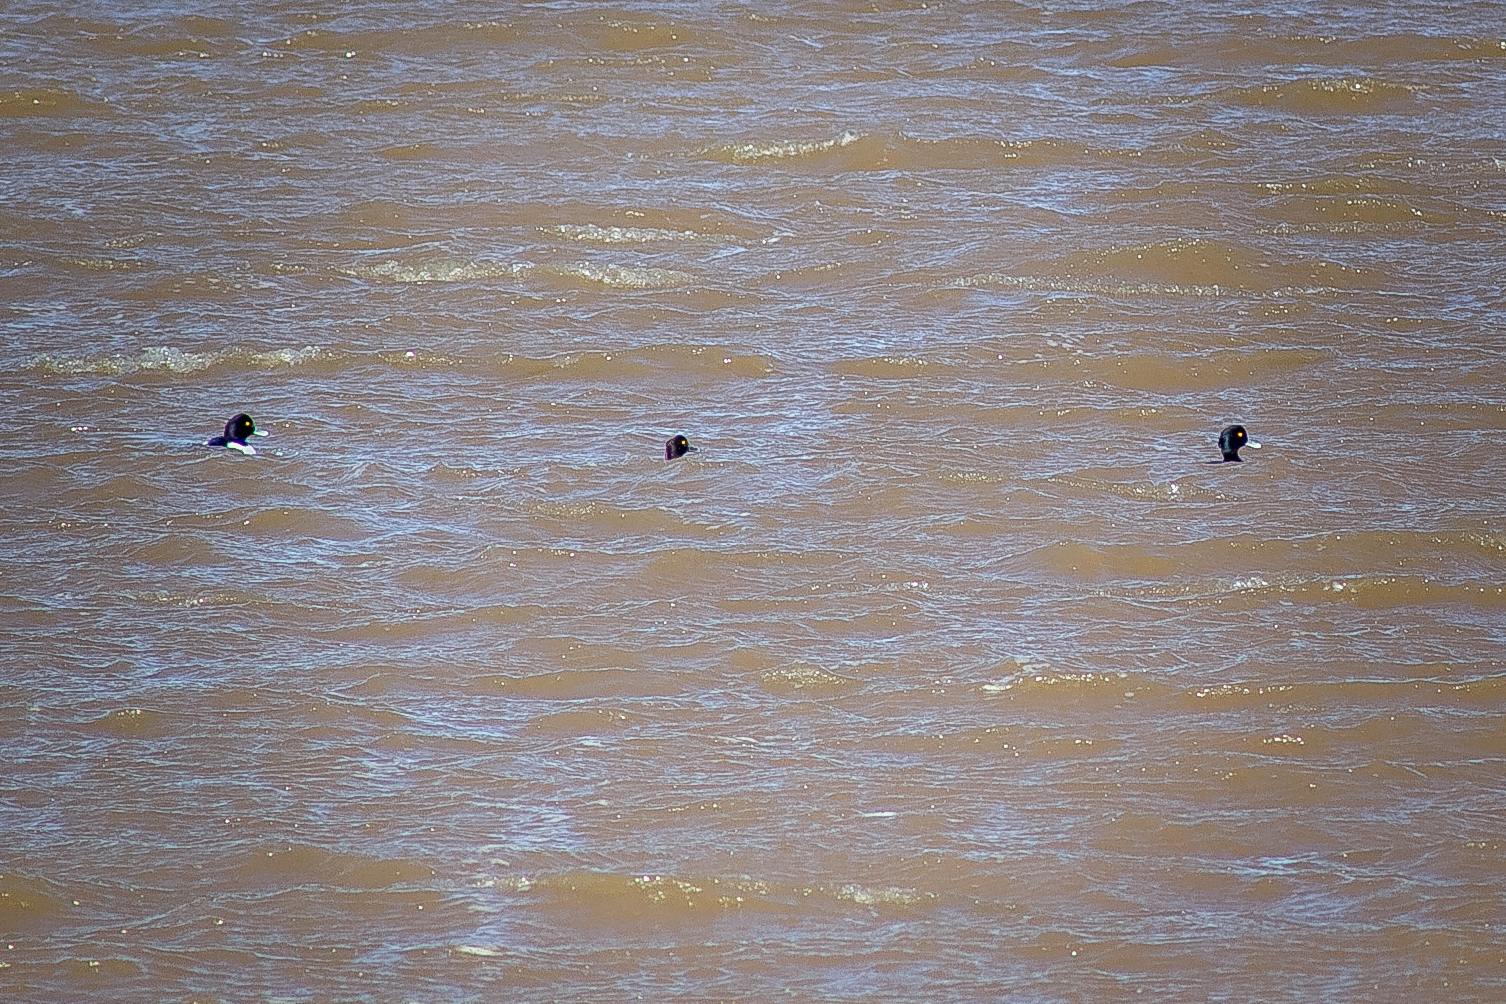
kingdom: Animalia
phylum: Chordata
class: Aves
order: Anseriformes
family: Anatidae
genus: Aythya
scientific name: Aythya fuligula
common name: Tufted duck
